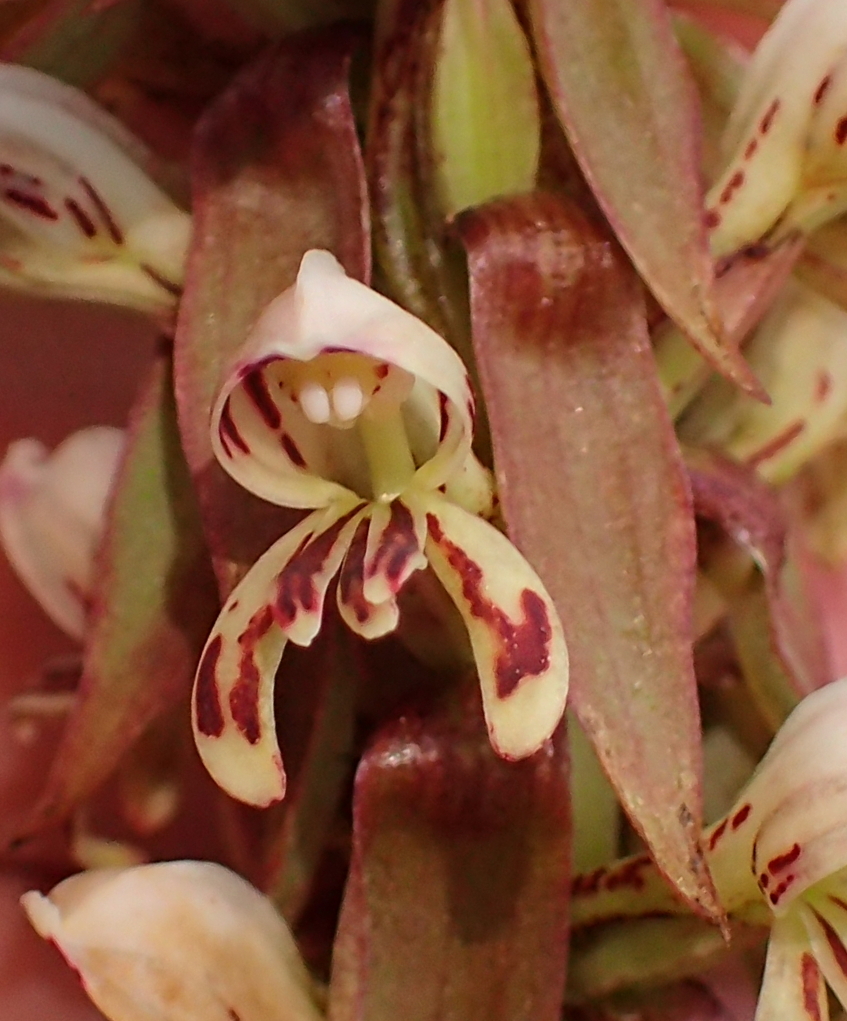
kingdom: Plantae
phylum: Tracheophyta
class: Liliopsida
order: Asparagales
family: Orchidaceae
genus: Satyrium
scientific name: Satyrium cristatum
